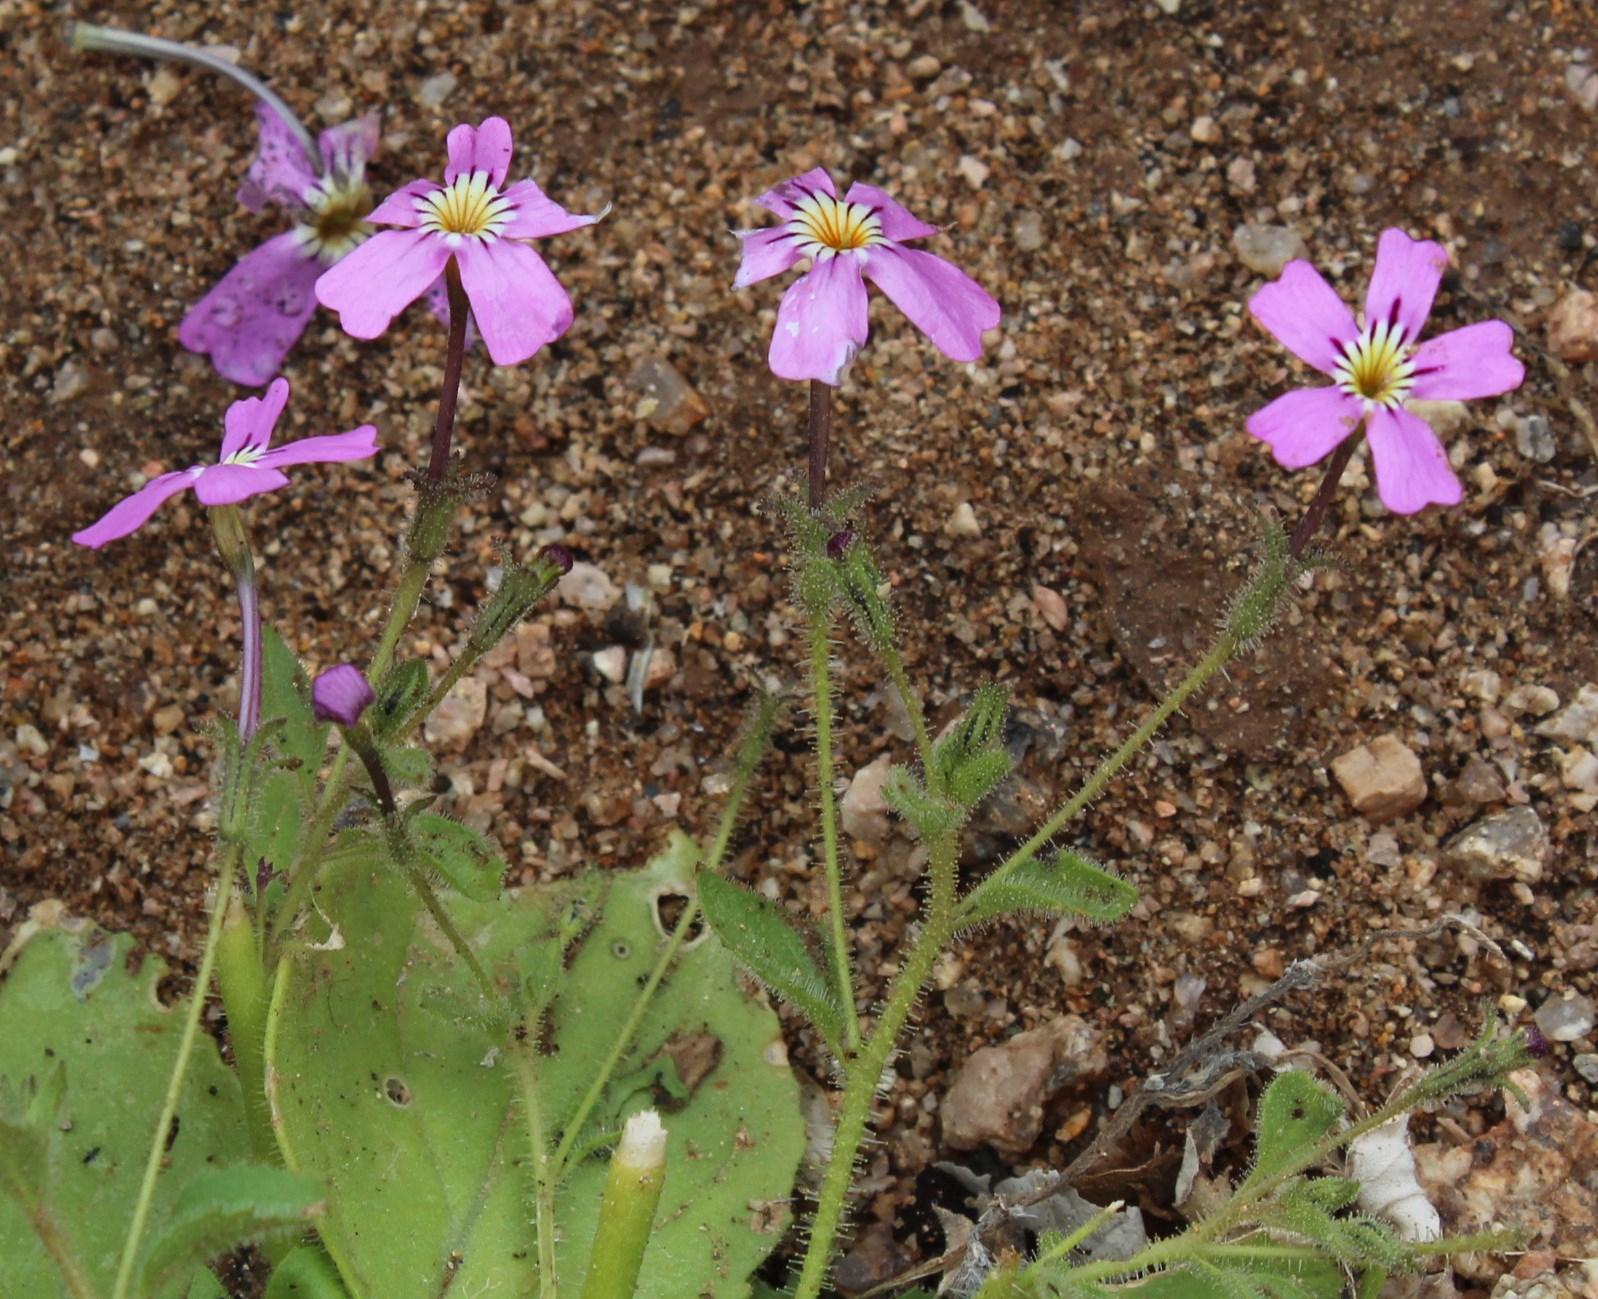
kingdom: Plantae
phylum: Tracheophyta
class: Magnoliopsida
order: Lamiales
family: Scrophulariaceae
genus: Jamesbrittenia
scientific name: Jamesbrittenia glutinosa
